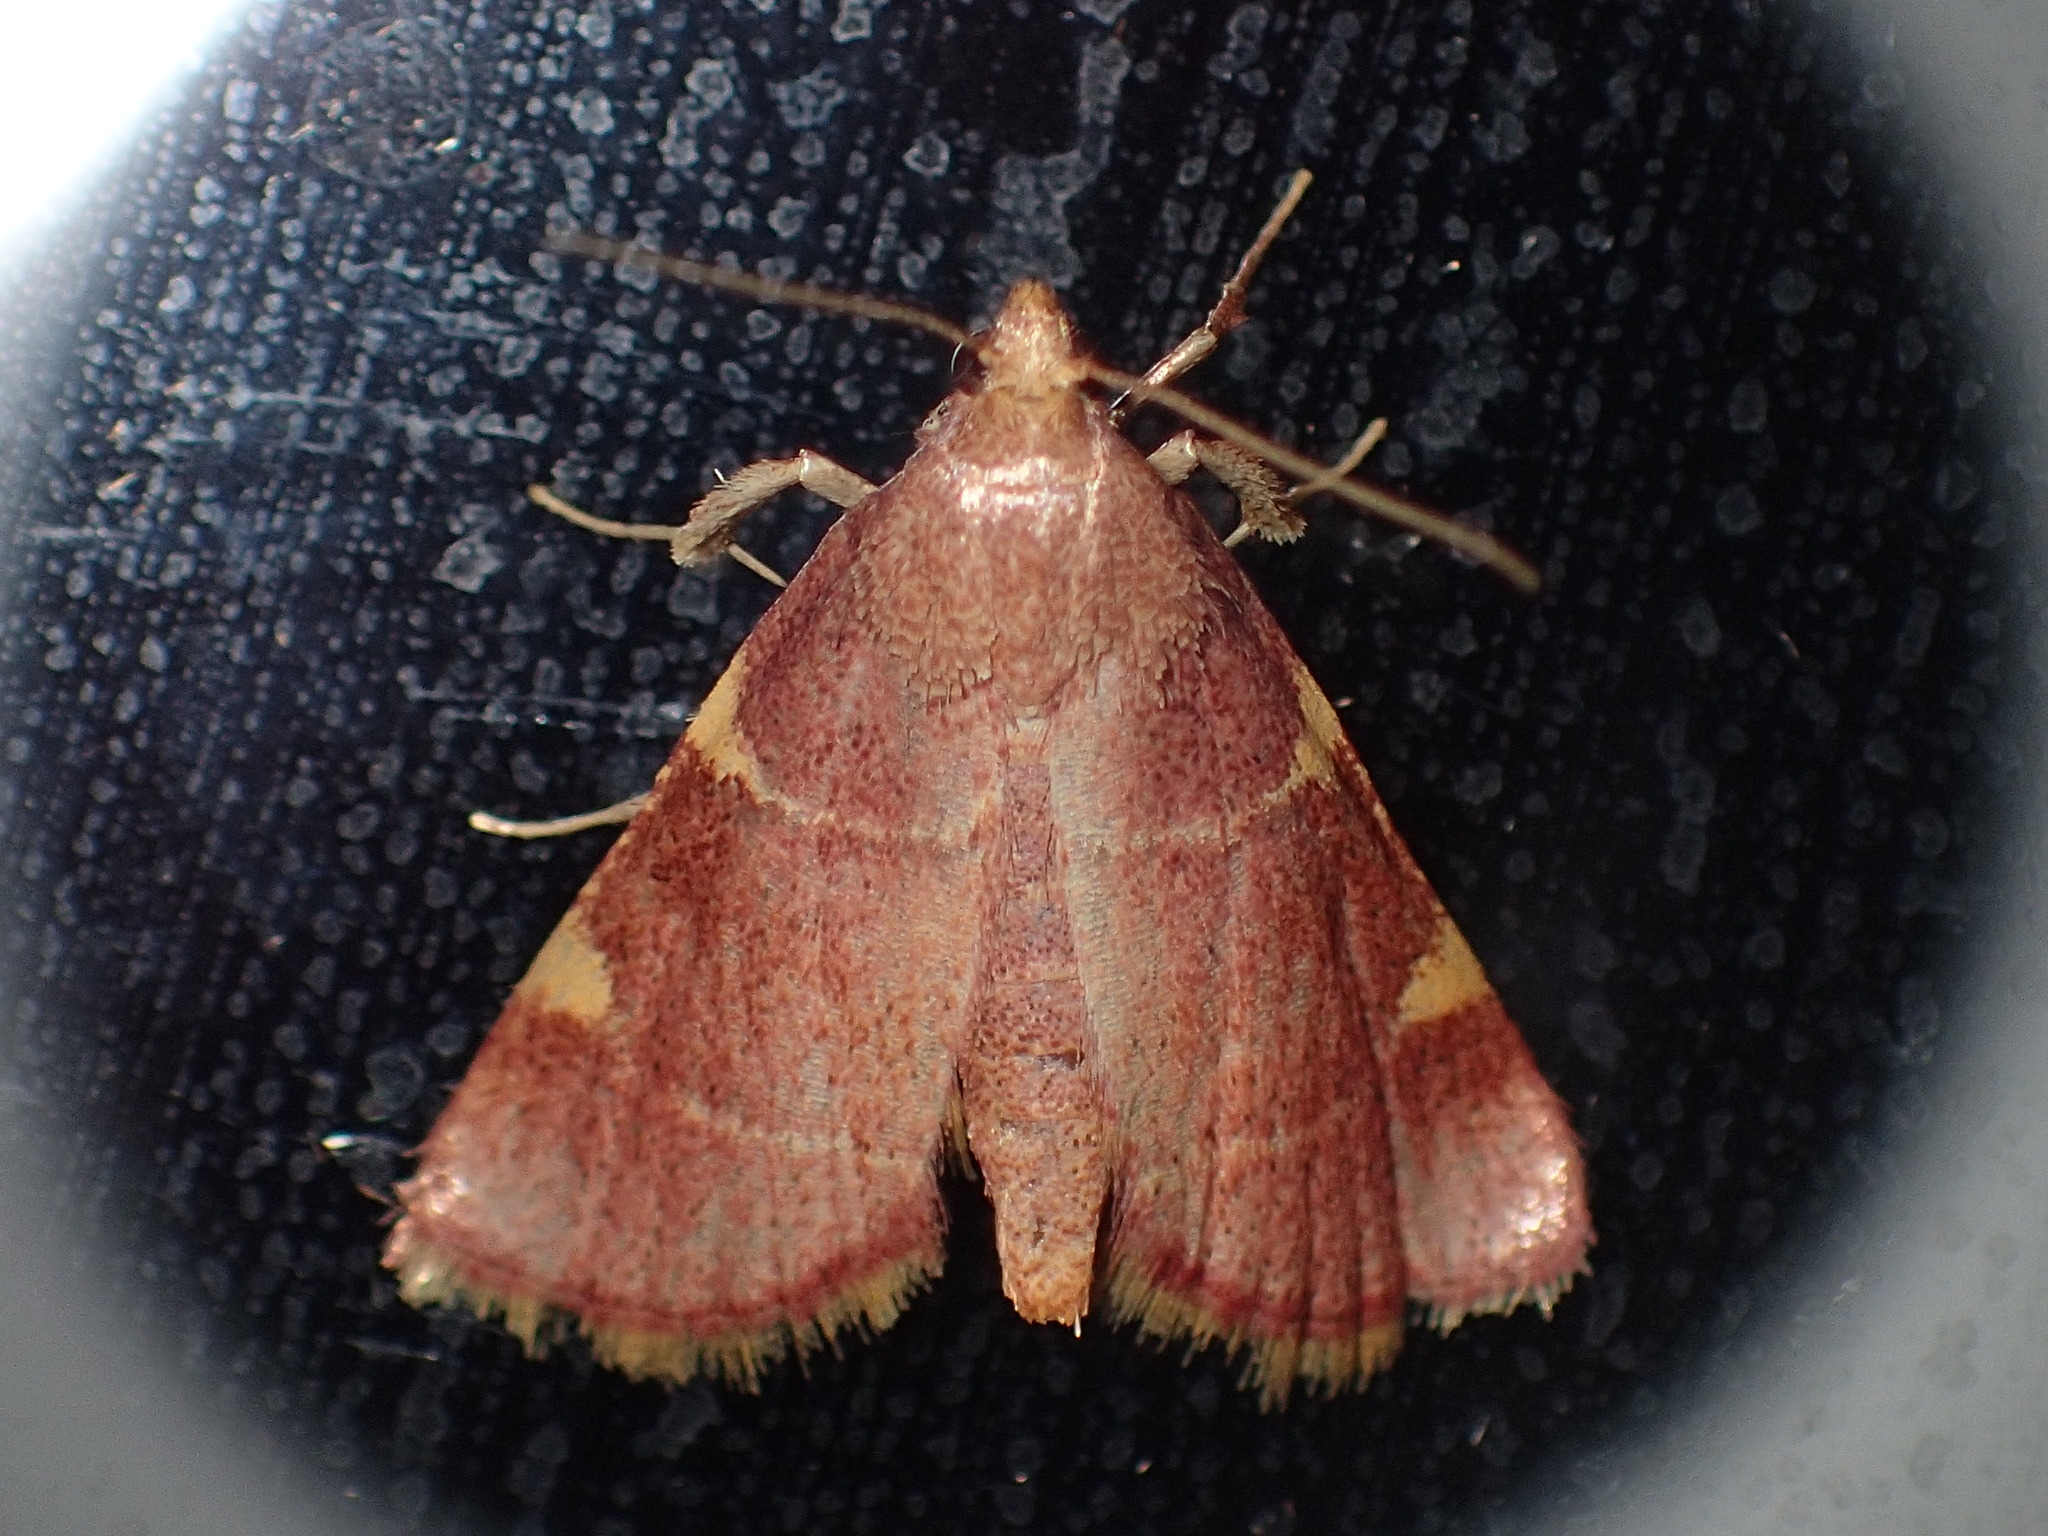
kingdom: Animalia
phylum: Arthropoda
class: Insecta
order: Lepidoptera
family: Pyralidae
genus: Hypsopygia
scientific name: Hypsopygia olinalis
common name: Yellow-fringed dolichomia moth
